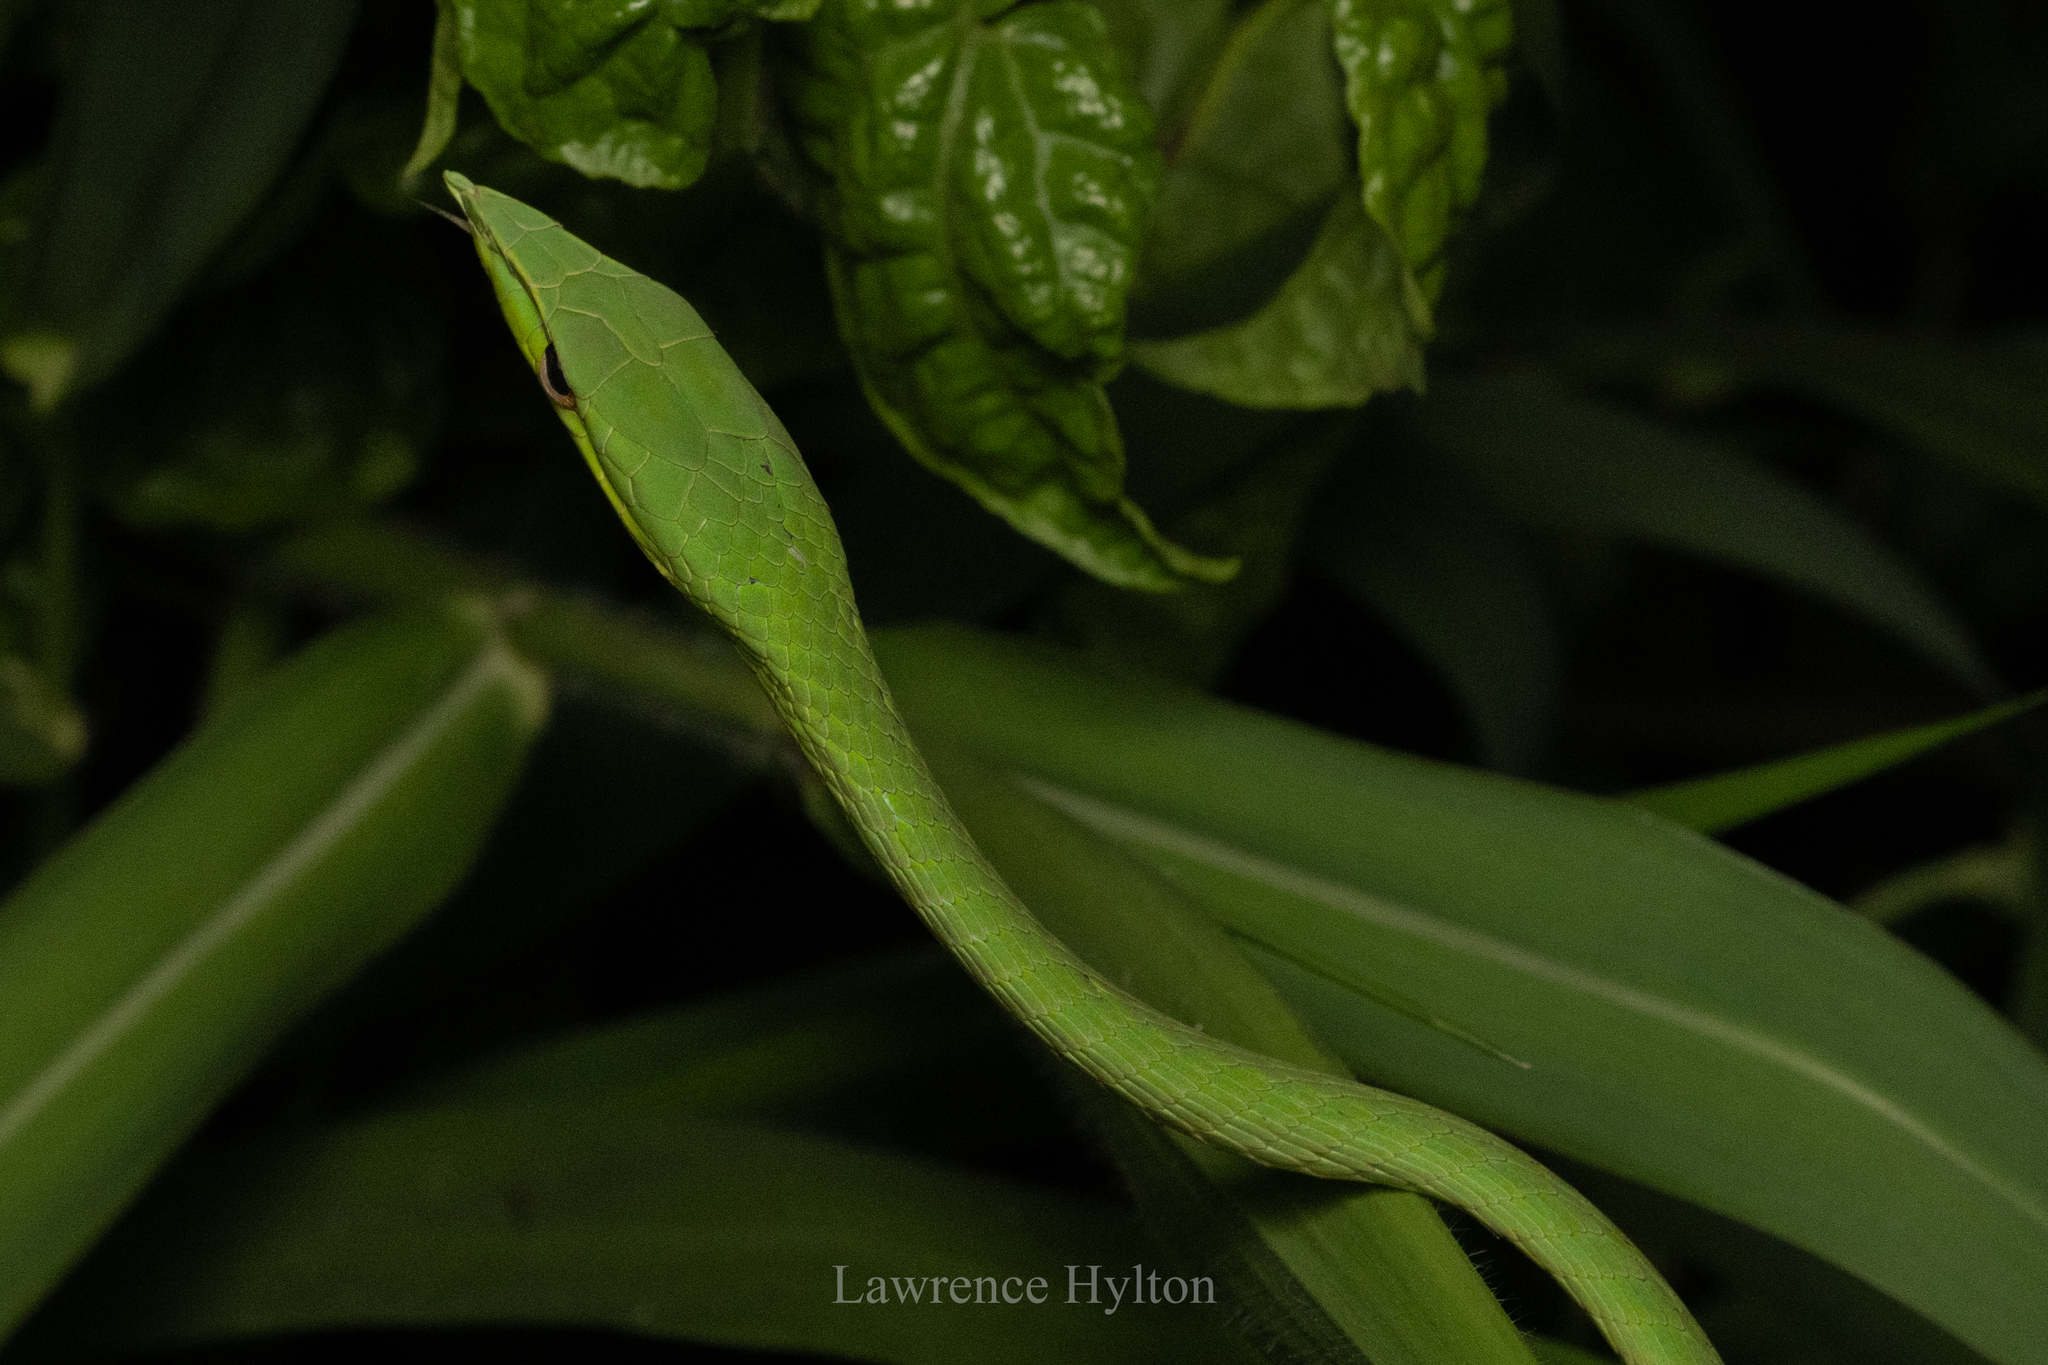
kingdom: Animalia
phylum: Chordata
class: Squamata
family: Colubridae
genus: Ahaetulla
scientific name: Ahaetulla
